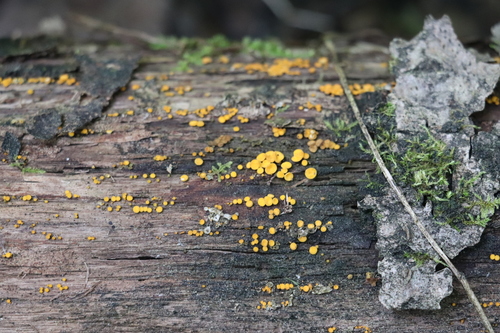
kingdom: Fungi
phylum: Ascomycota
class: Leotiomycetes
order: Helotiales
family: Pezizellaceae
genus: Calycina
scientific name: Calycina citrina
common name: Yellow fairy cups
